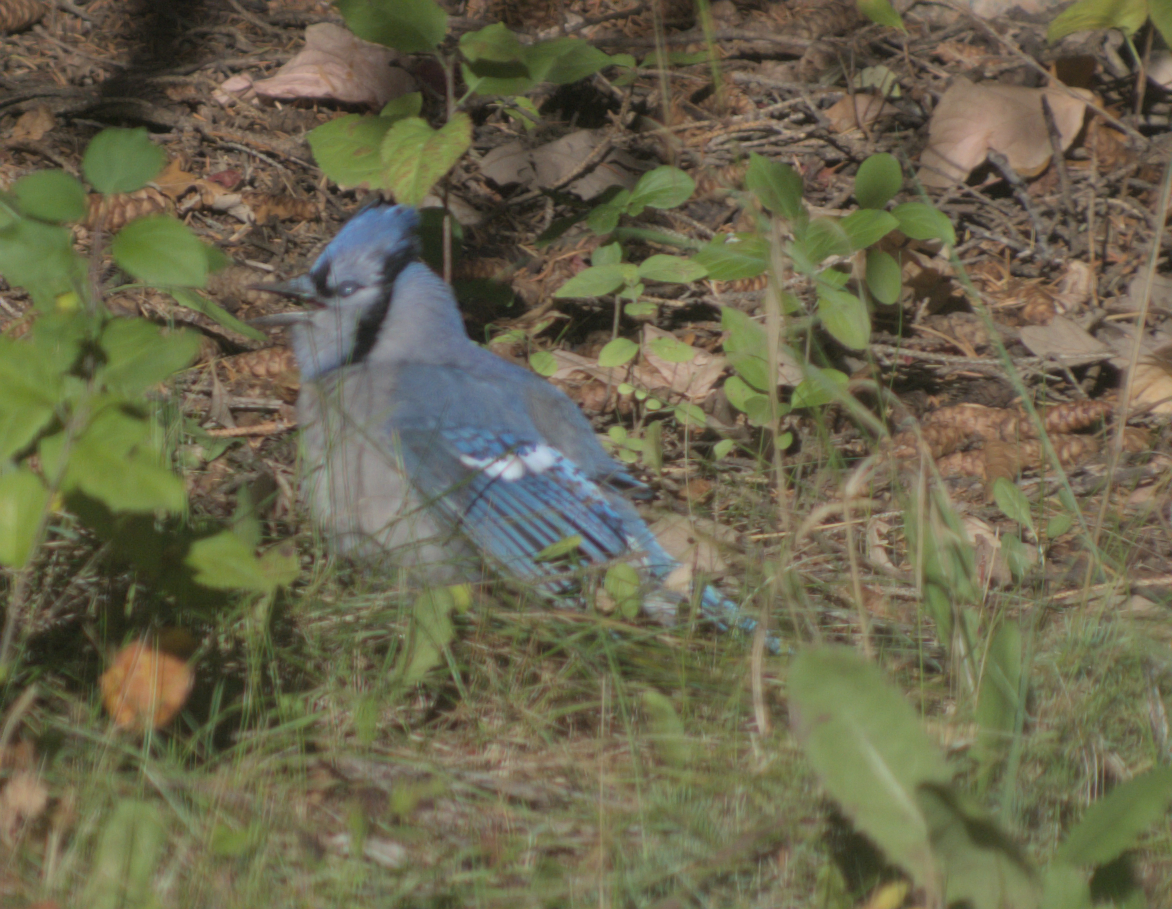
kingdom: Animalia
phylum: Chordata
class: Aves
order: Passeriformes
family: Corvidae
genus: Cyanocitta
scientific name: Cyanocitta cristata
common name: Blue jay
